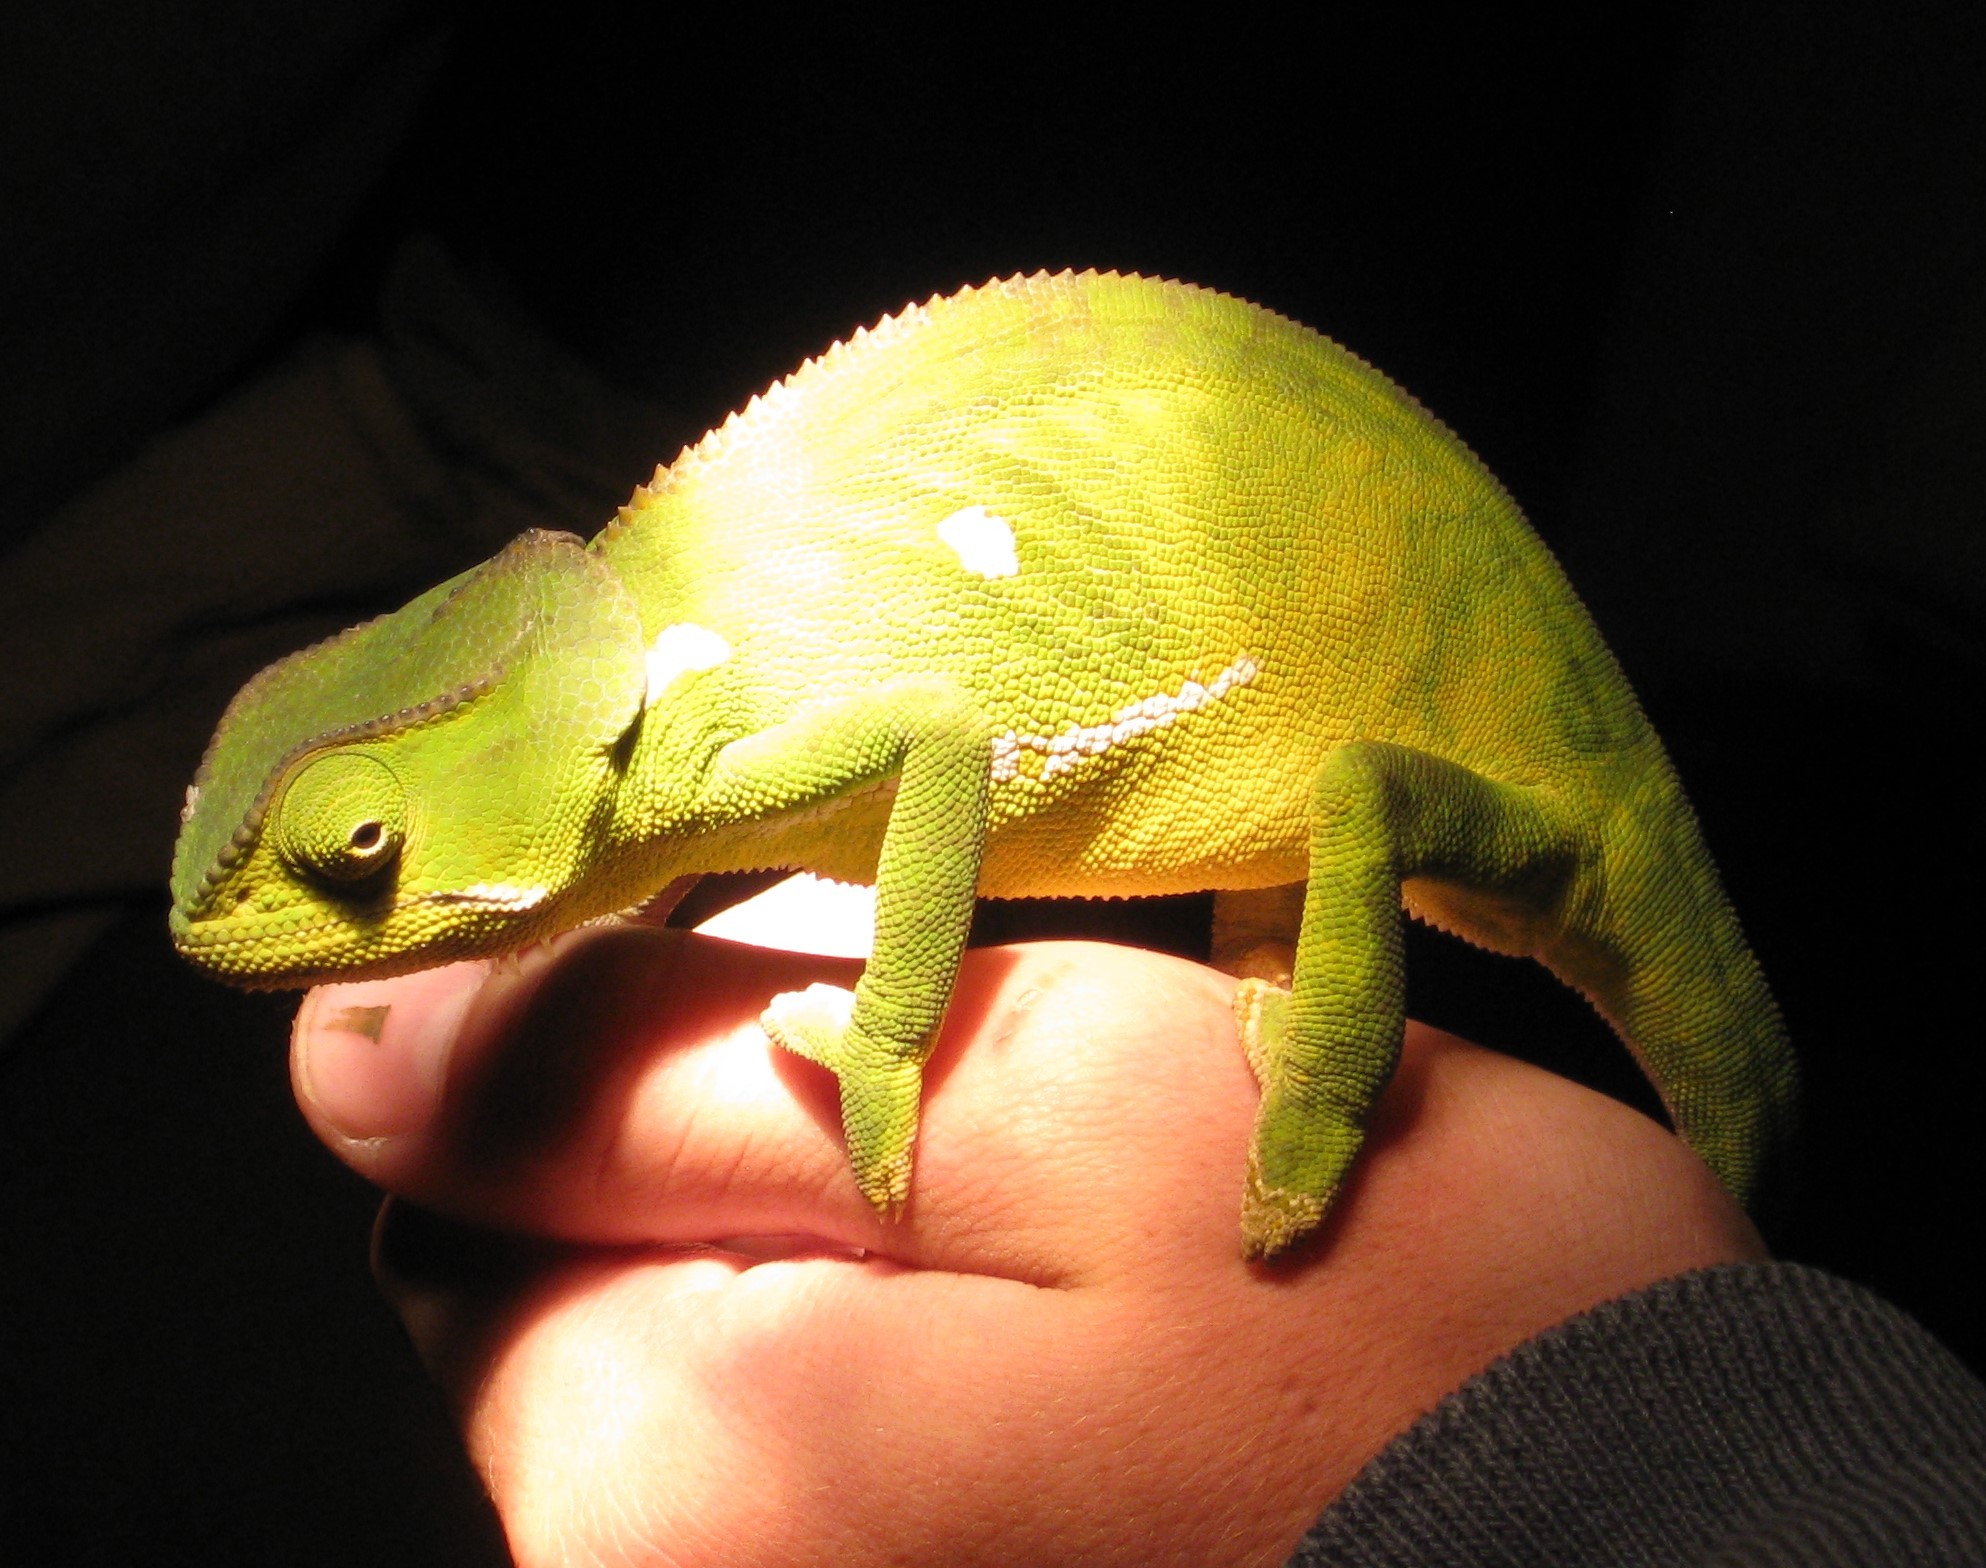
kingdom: Animalia
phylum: Chordata
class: Squamata
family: Chamaeleonidae
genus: Chamaeleo
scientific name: Chamaeleo dilepis
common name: Flapneck chameleon
